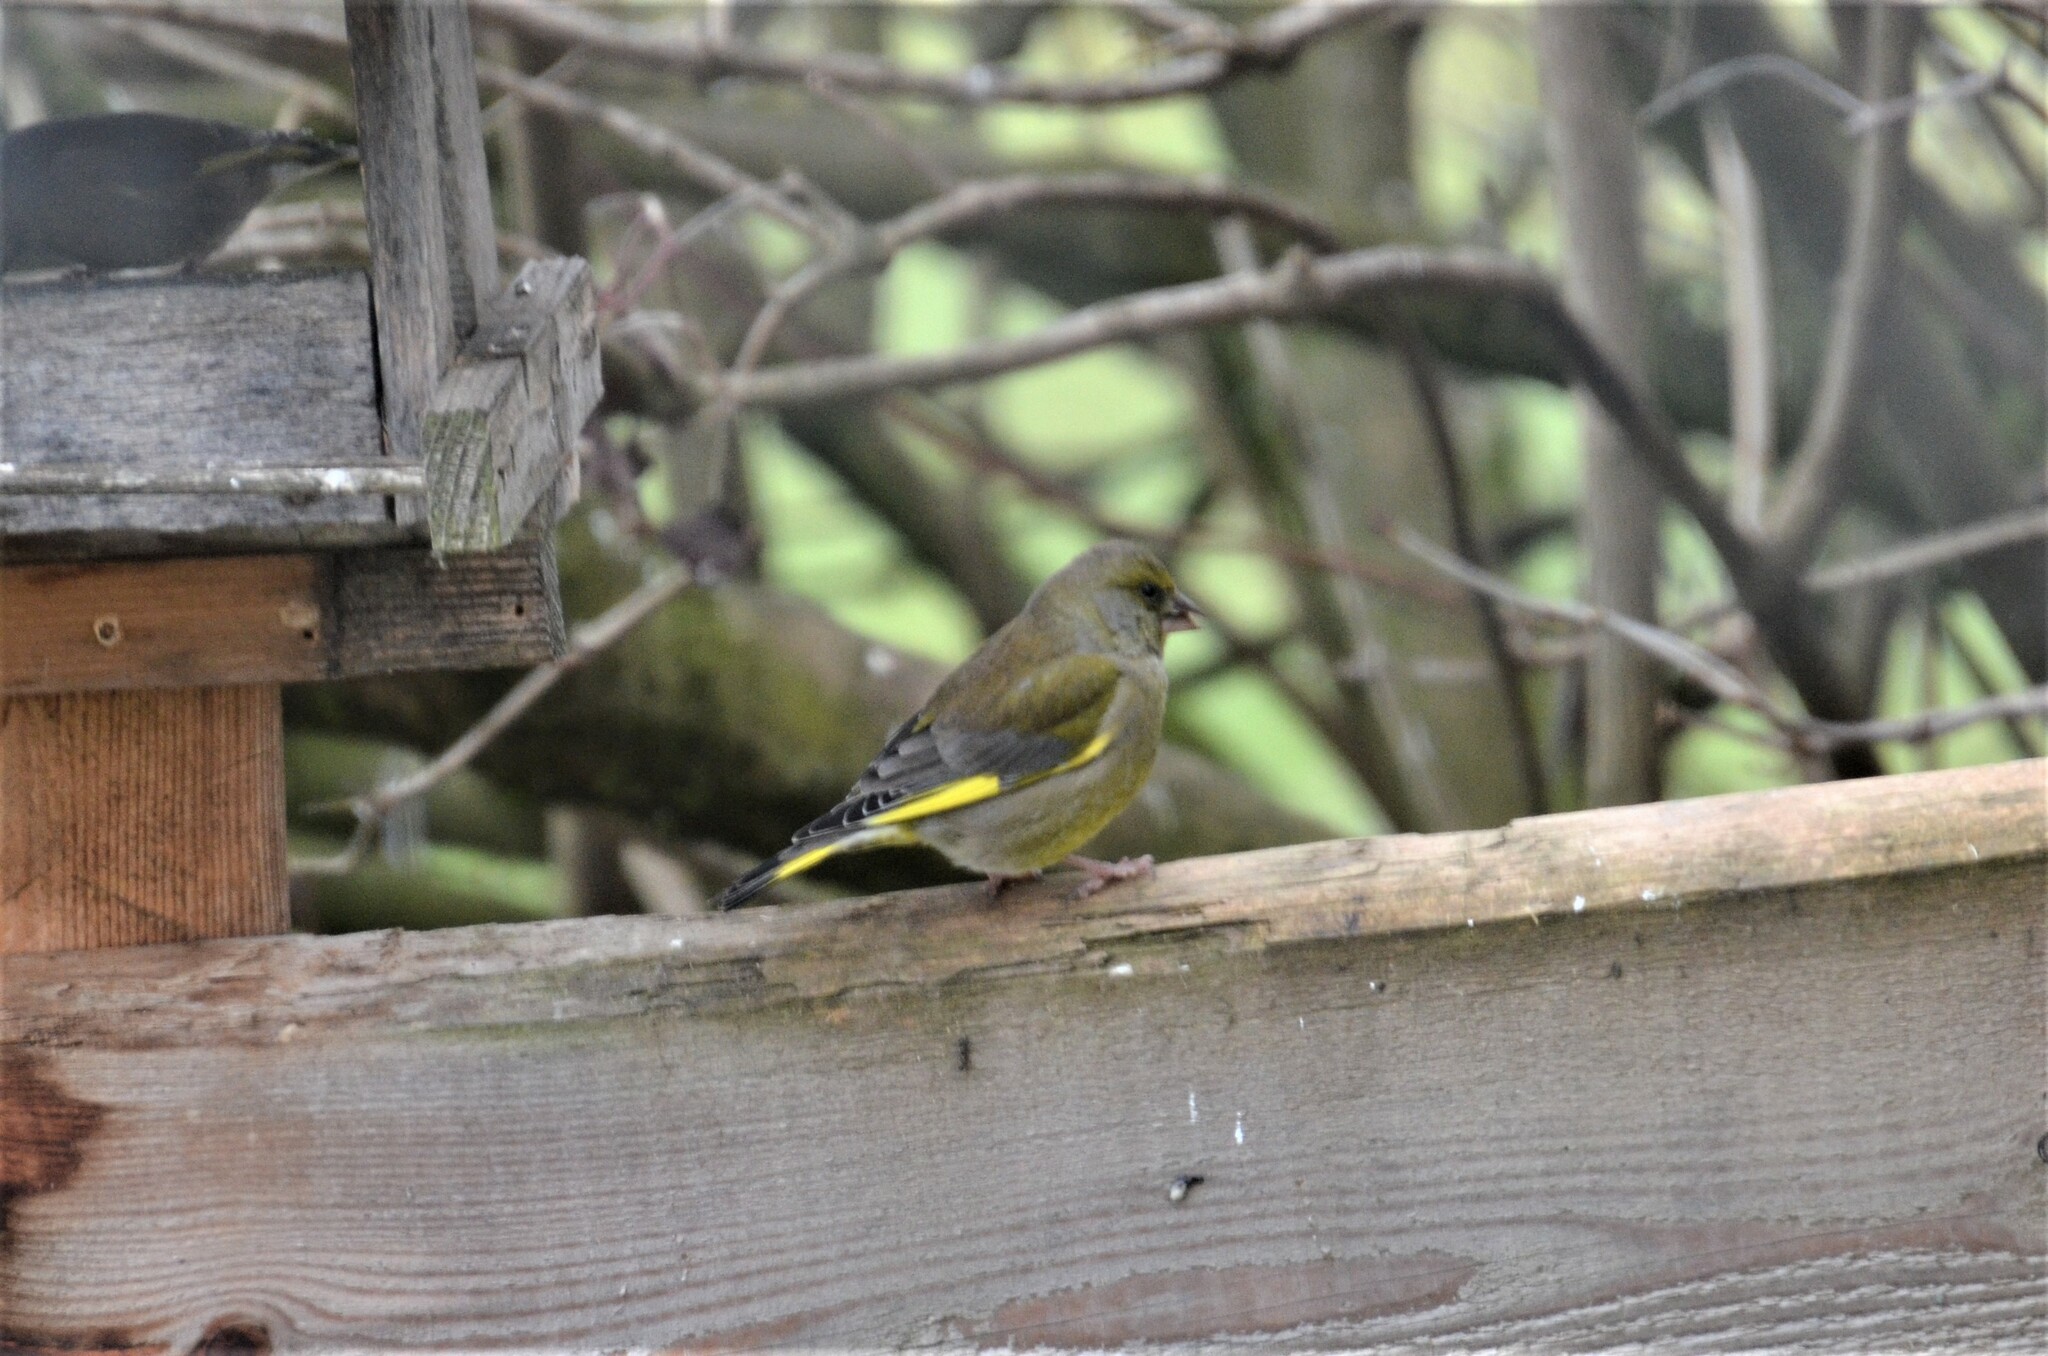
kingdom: Plantae
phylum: Tracheophyta
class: Liliopsida
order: Poales
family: Poaceae
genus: Chloris
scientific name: Chloris chloris
